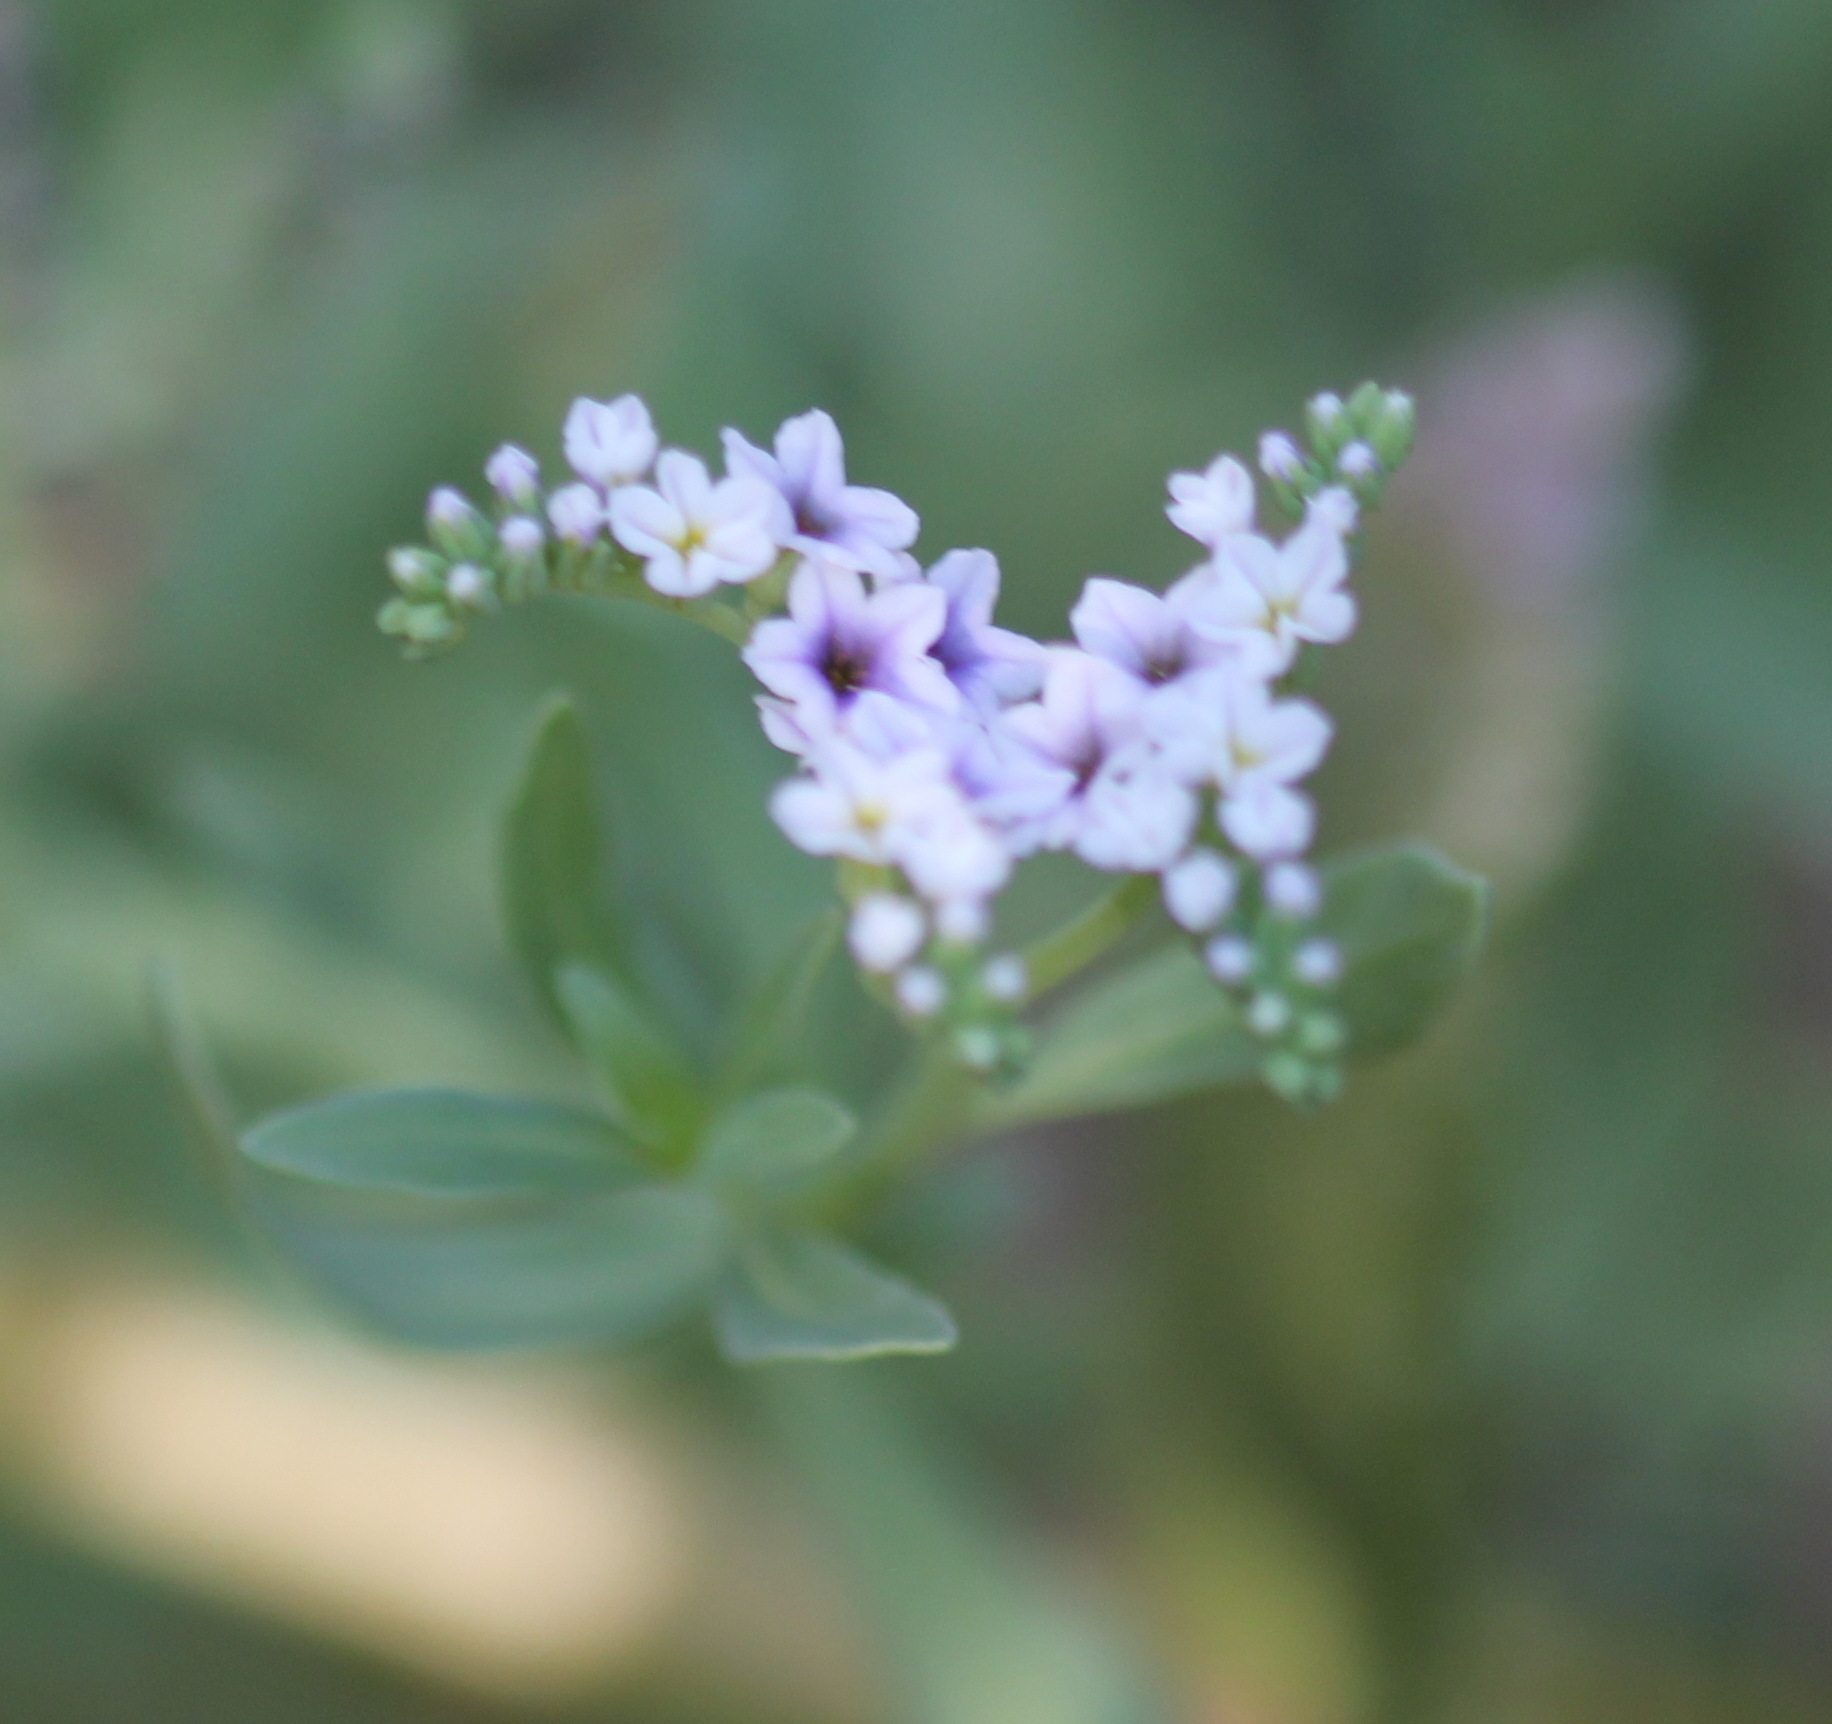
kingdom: Plantae
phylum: Tracheophyta
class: Magnoliopsida
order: Boraginales
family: Heliotropiaceae
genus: Heliotropium
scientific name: Heliotropium curassavicum
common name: Seaside heliotrope
